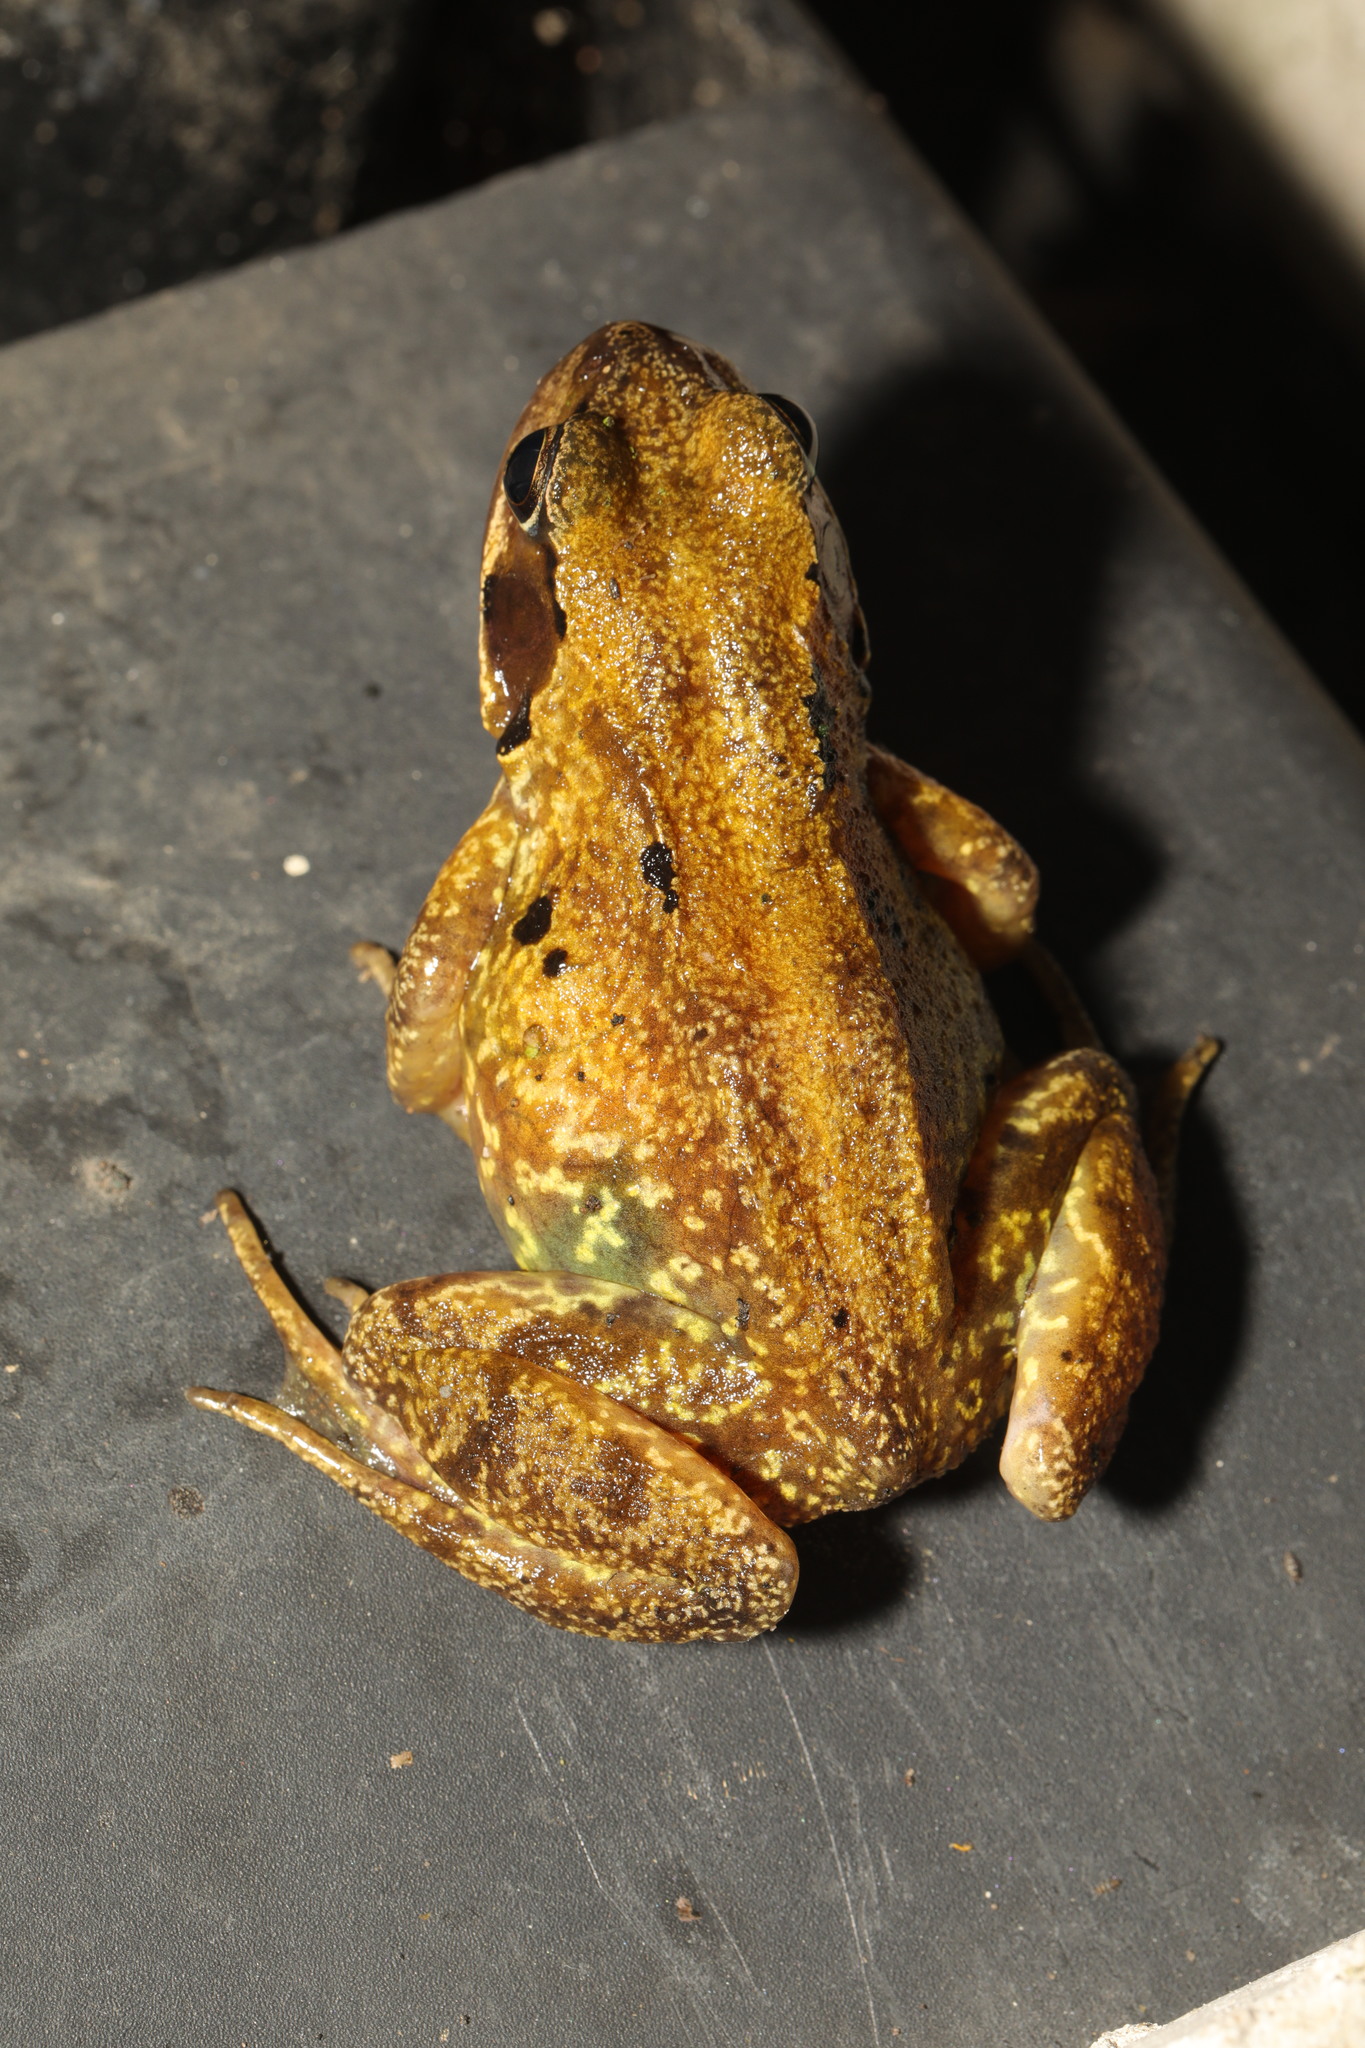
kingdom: Animalia
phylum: Chordata
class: Amphibia
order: Anura
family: Ranidae
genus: Rana
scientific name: Rana temporaria
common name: Common frog
